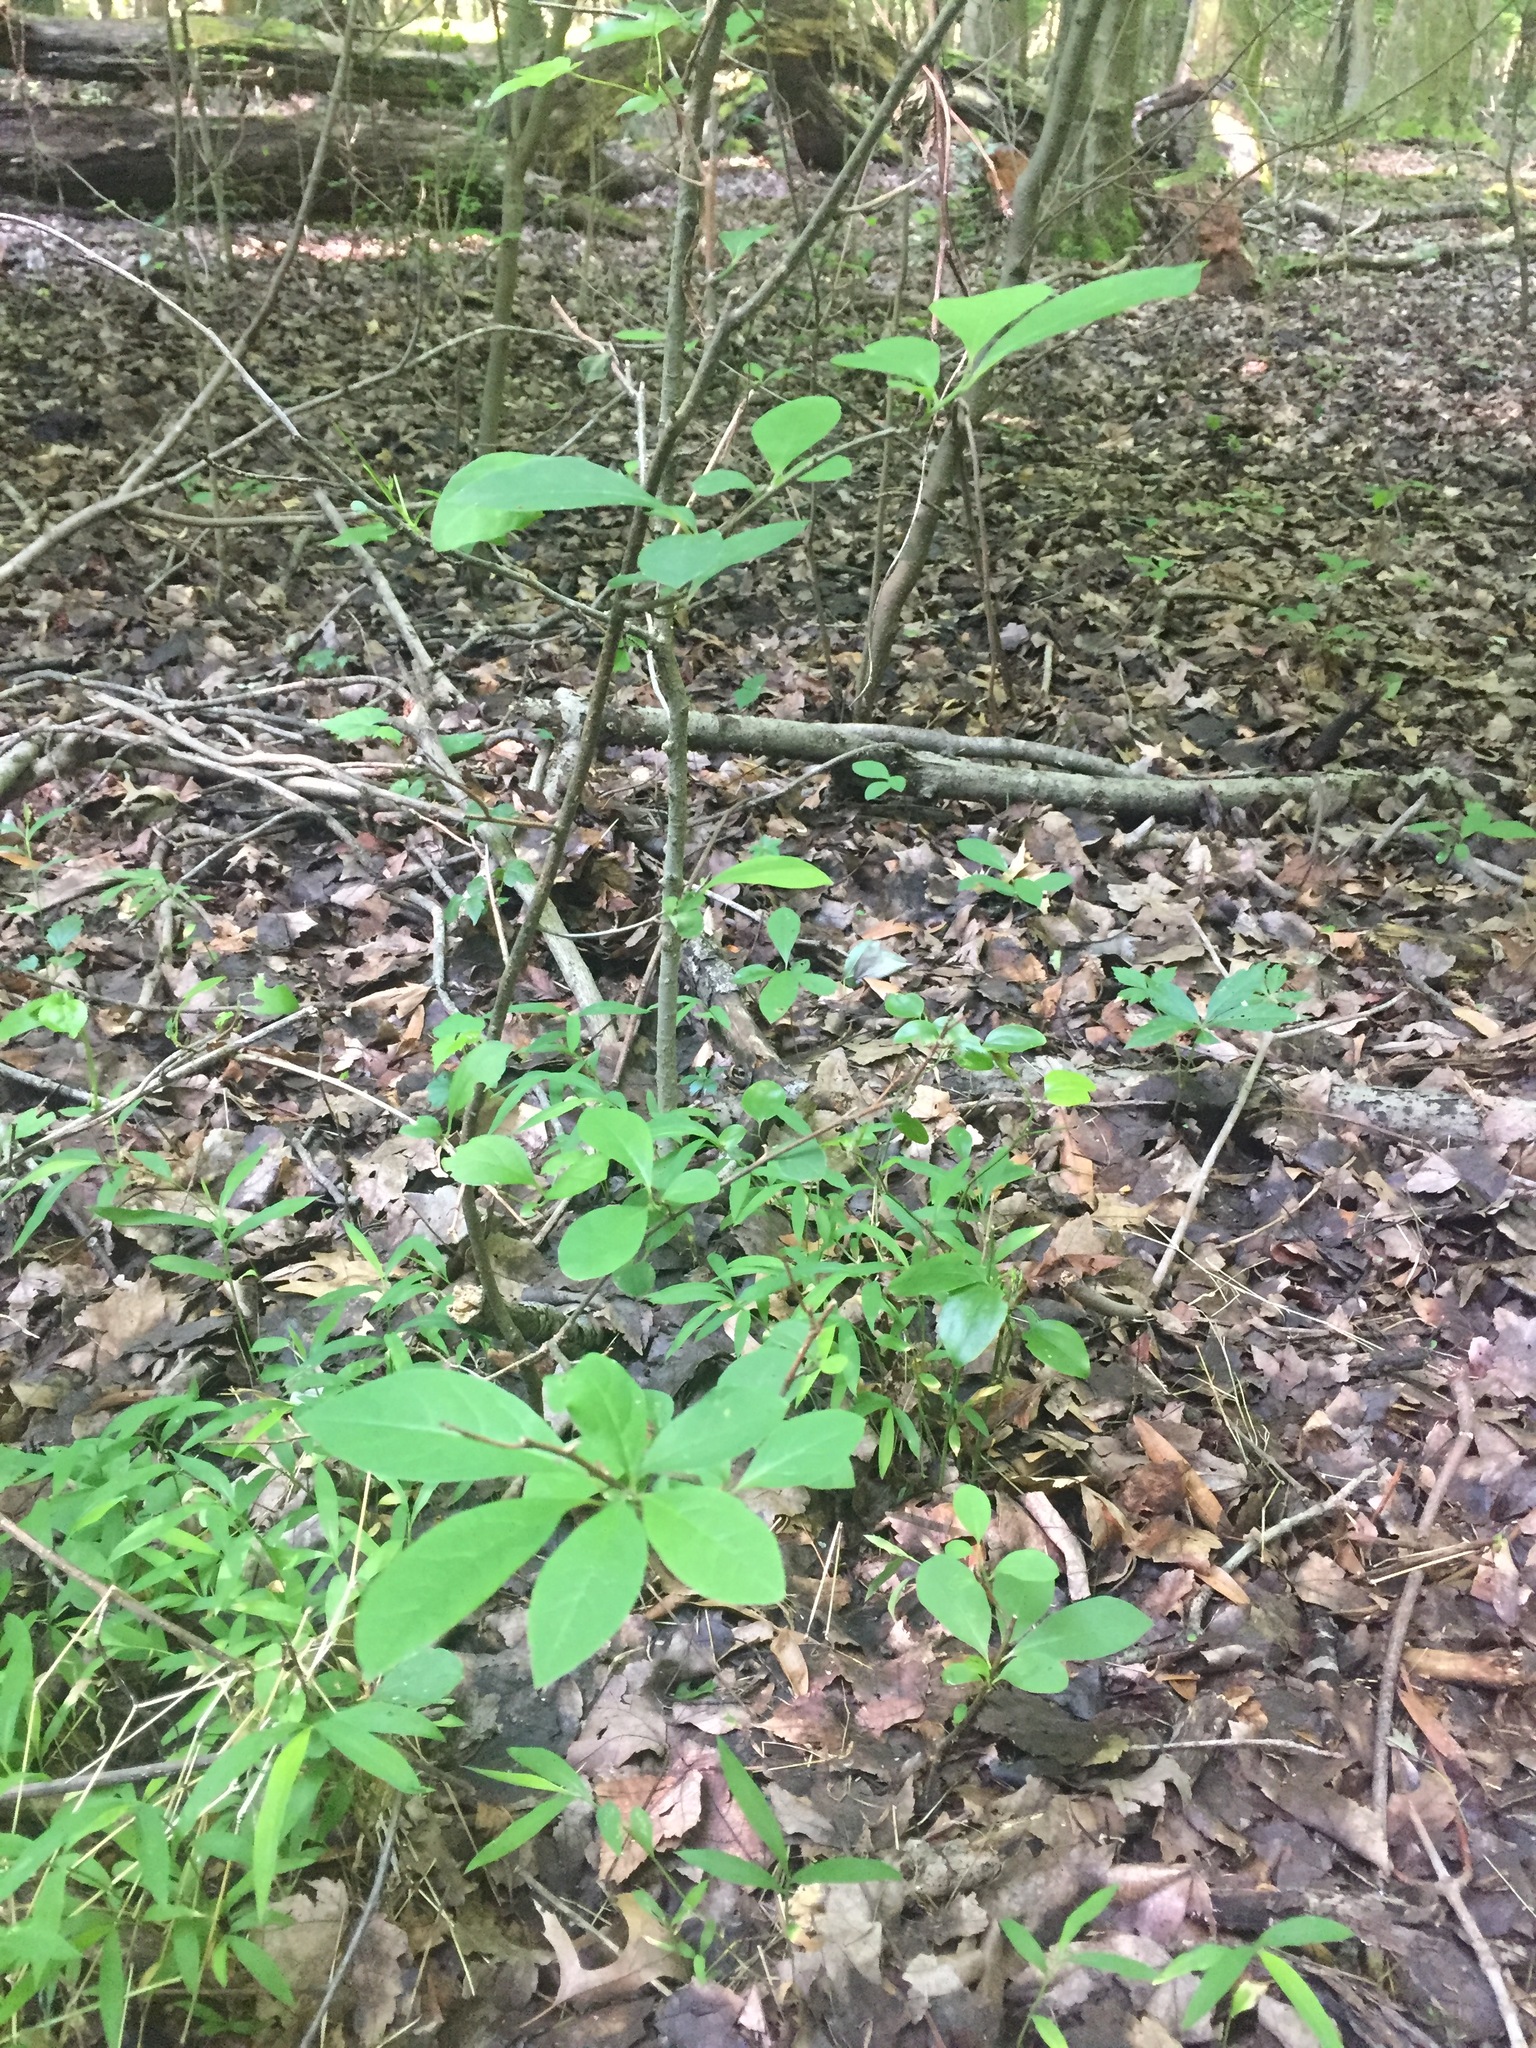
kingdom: Plantae
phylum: Tracheophyta
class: Magnoliopsida
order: Laurales
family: Lauraceae
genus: Lindera
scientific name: Lindera benzoin
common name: Spicebush
